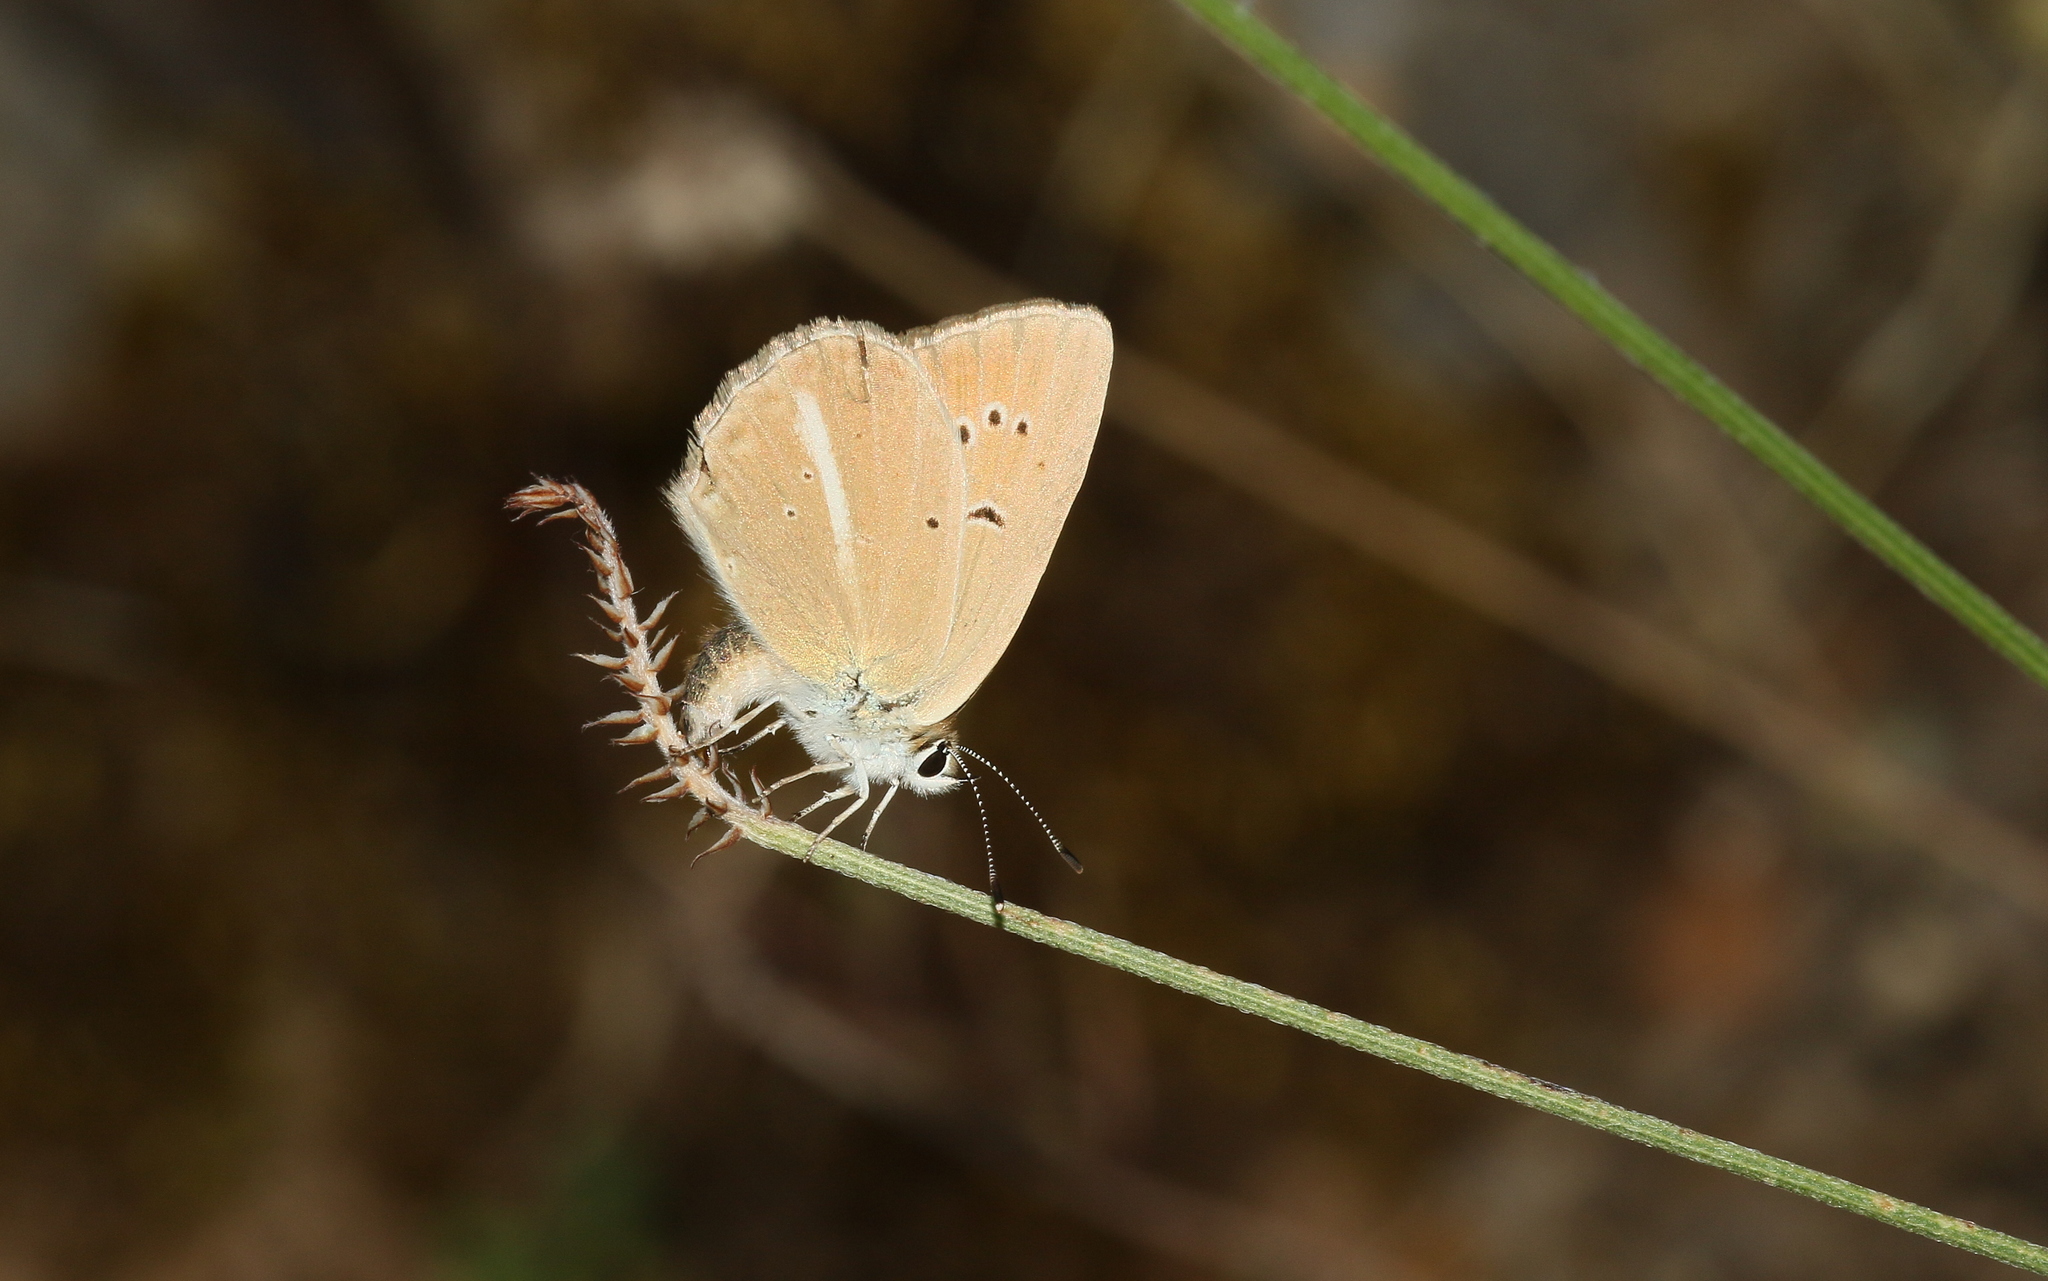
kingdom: Animalia
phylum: Arthropoda
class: Insecta
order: Lepidoptera
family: Lycaenidae
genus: Polyommatus
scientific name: Polyommatus ripartii
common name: Ripart's anomalous blue
